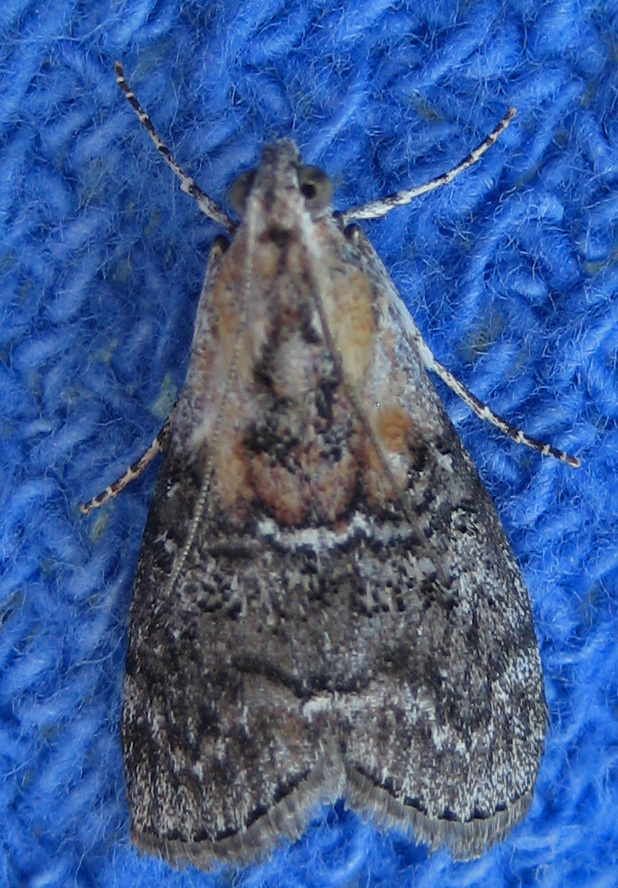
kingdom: Animalia
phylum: Arthropoda
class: Insecta
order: Lepidoptera
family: Pyralidae
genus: Pococera
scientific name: Pococera expandens
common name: Striped oak webworm moth
